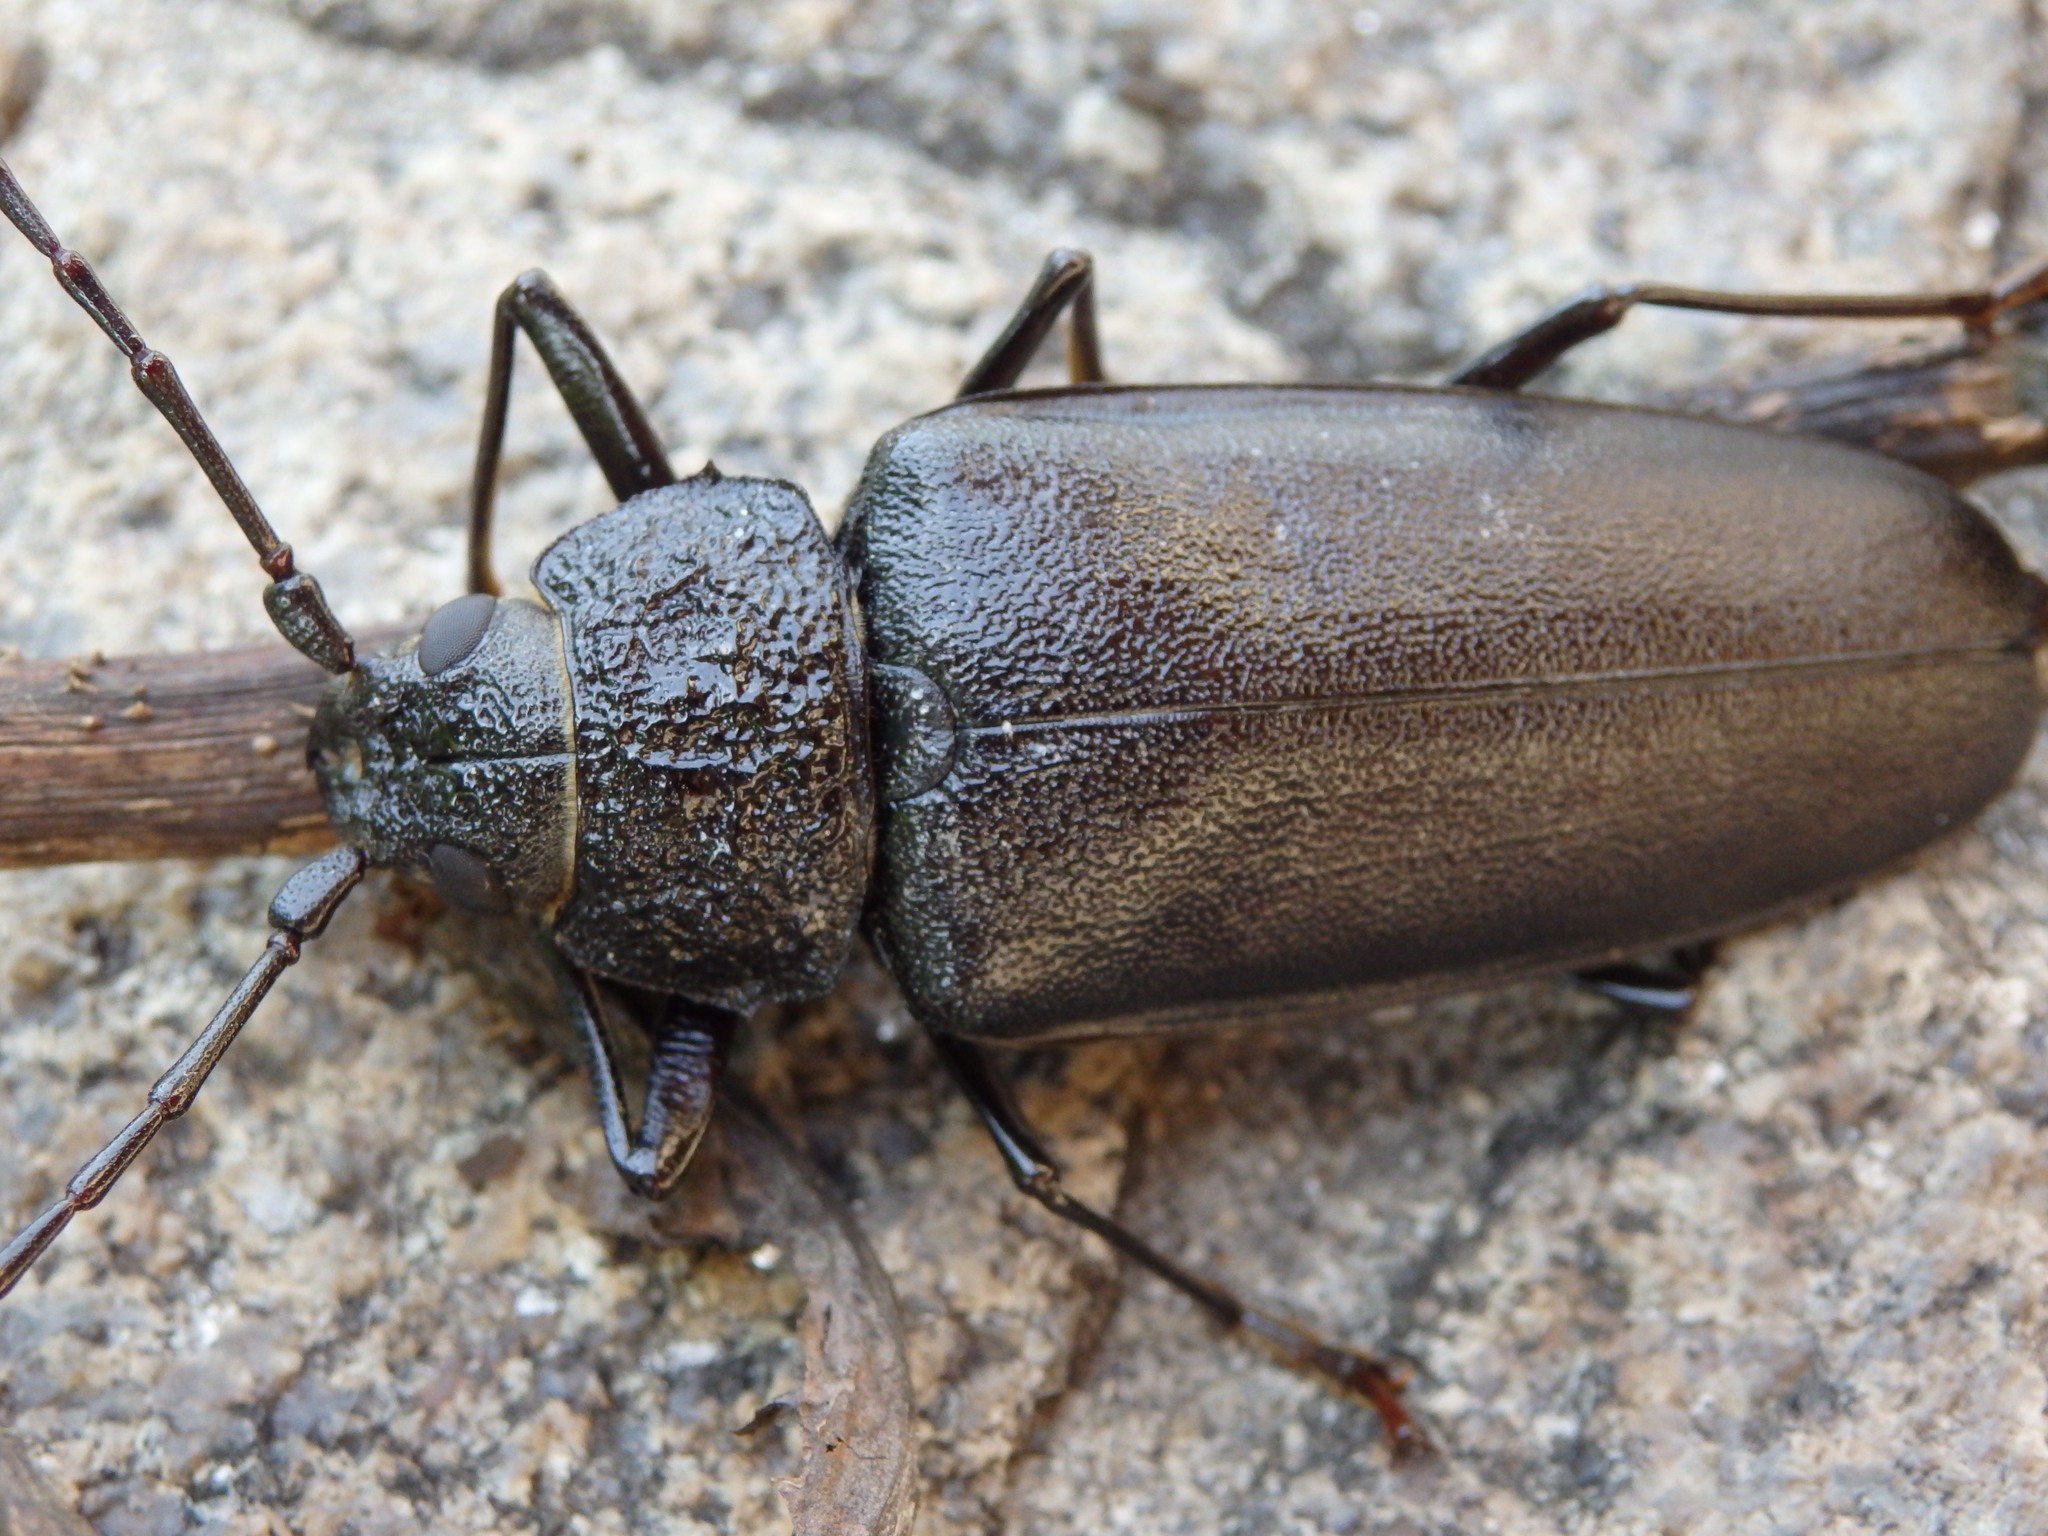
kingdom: Animalia
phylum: Arthropoda
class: Insecta
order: Coleoptera
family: Cerambycidae
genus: Ergates
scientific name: Ergates faber
